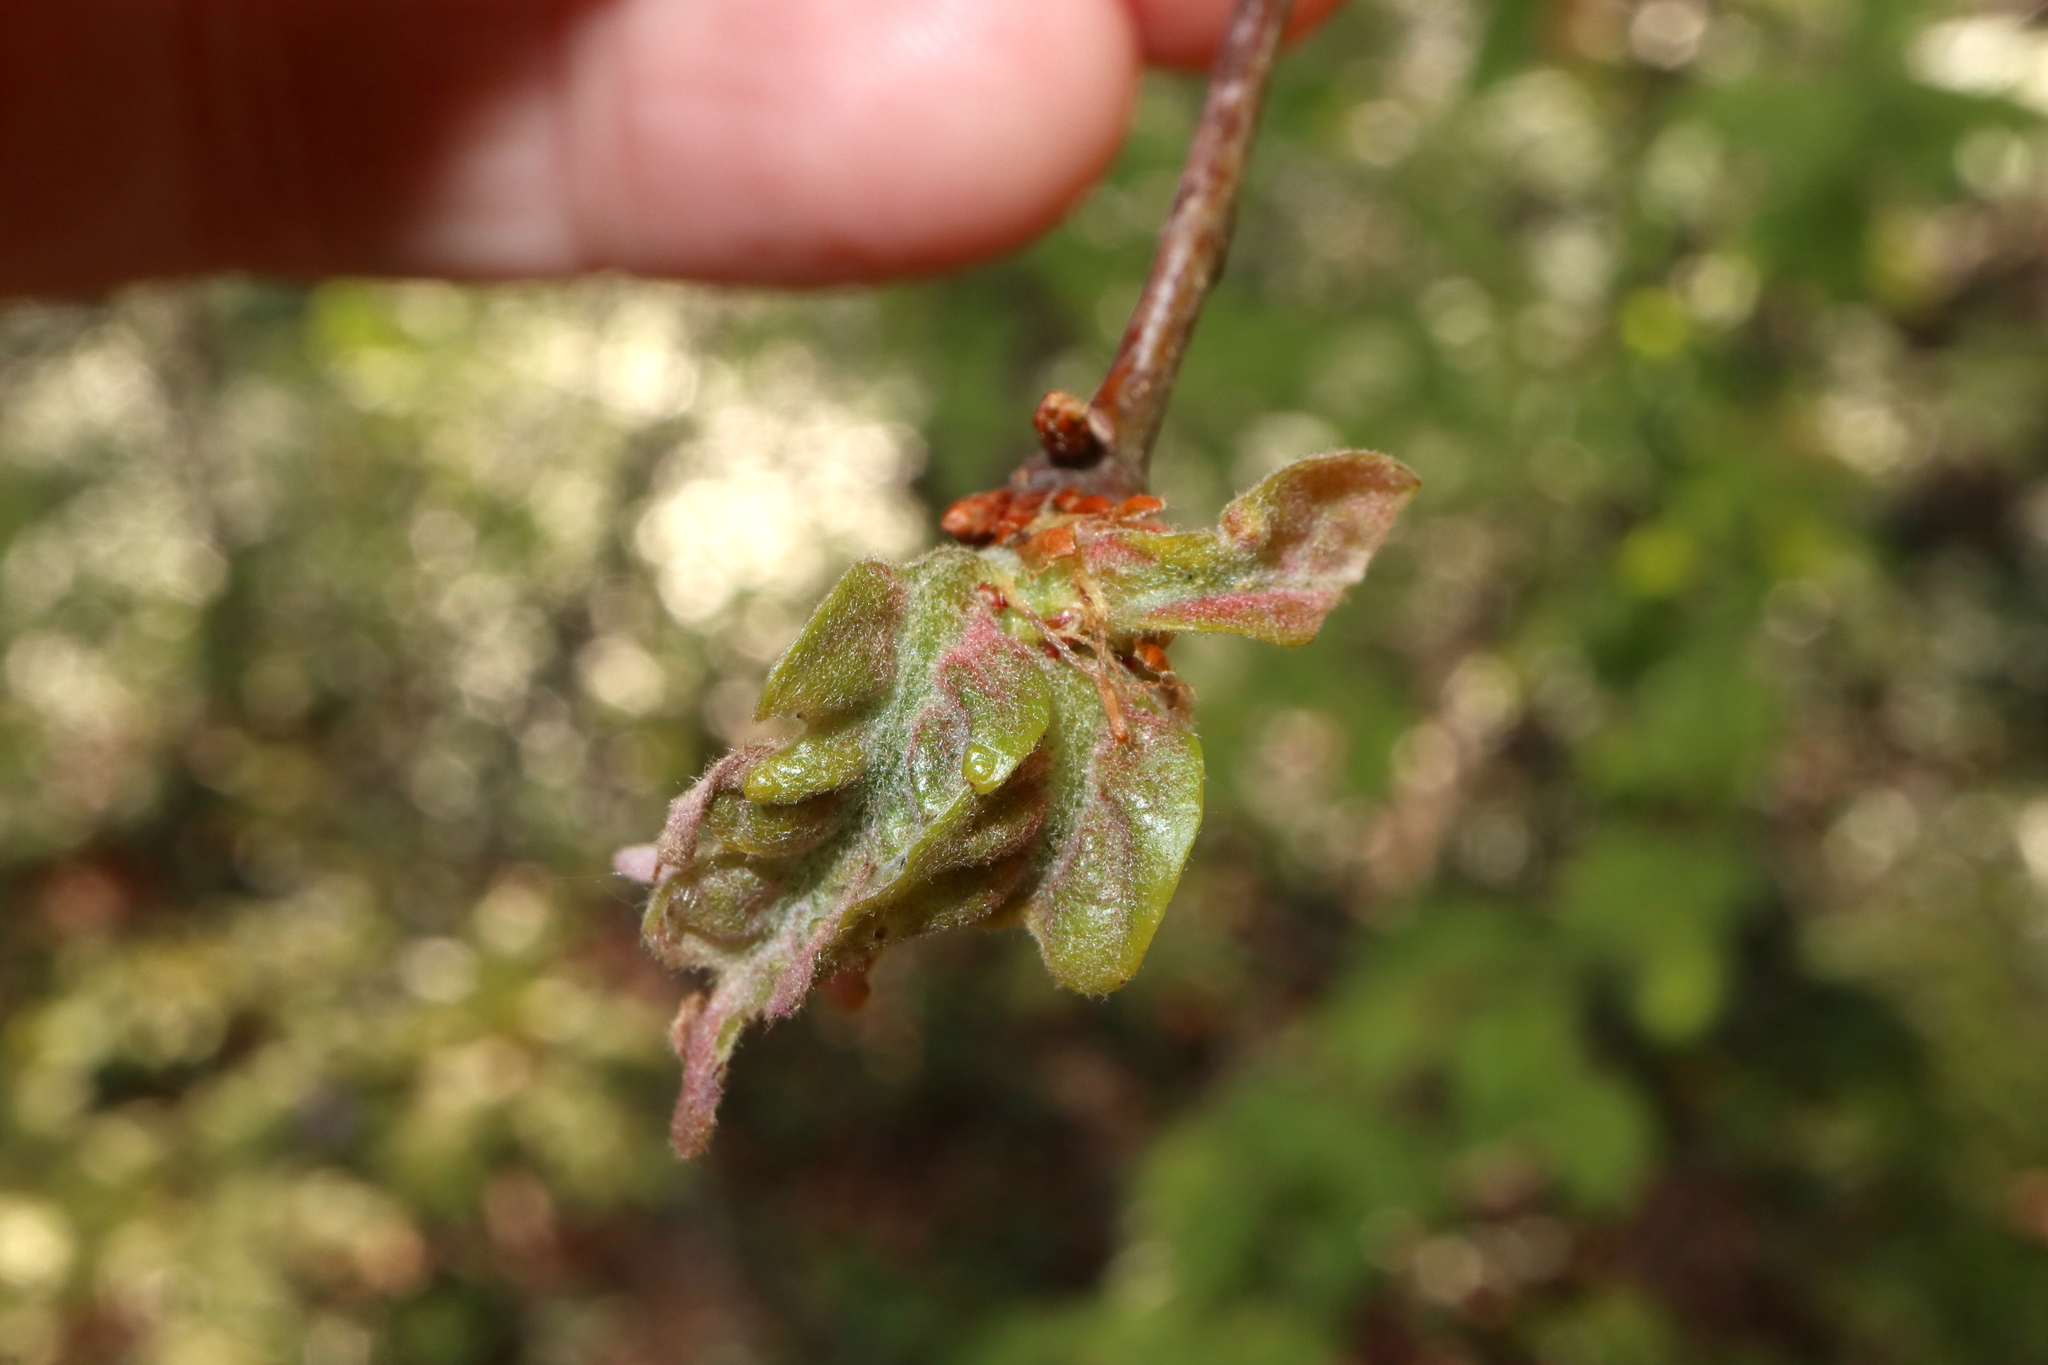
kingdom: Animalia
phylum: Arthropoda
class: Insecta
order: Hymenoptera
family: Cynipidae
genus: Neuroterus
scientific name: Neuroterus minutulus
